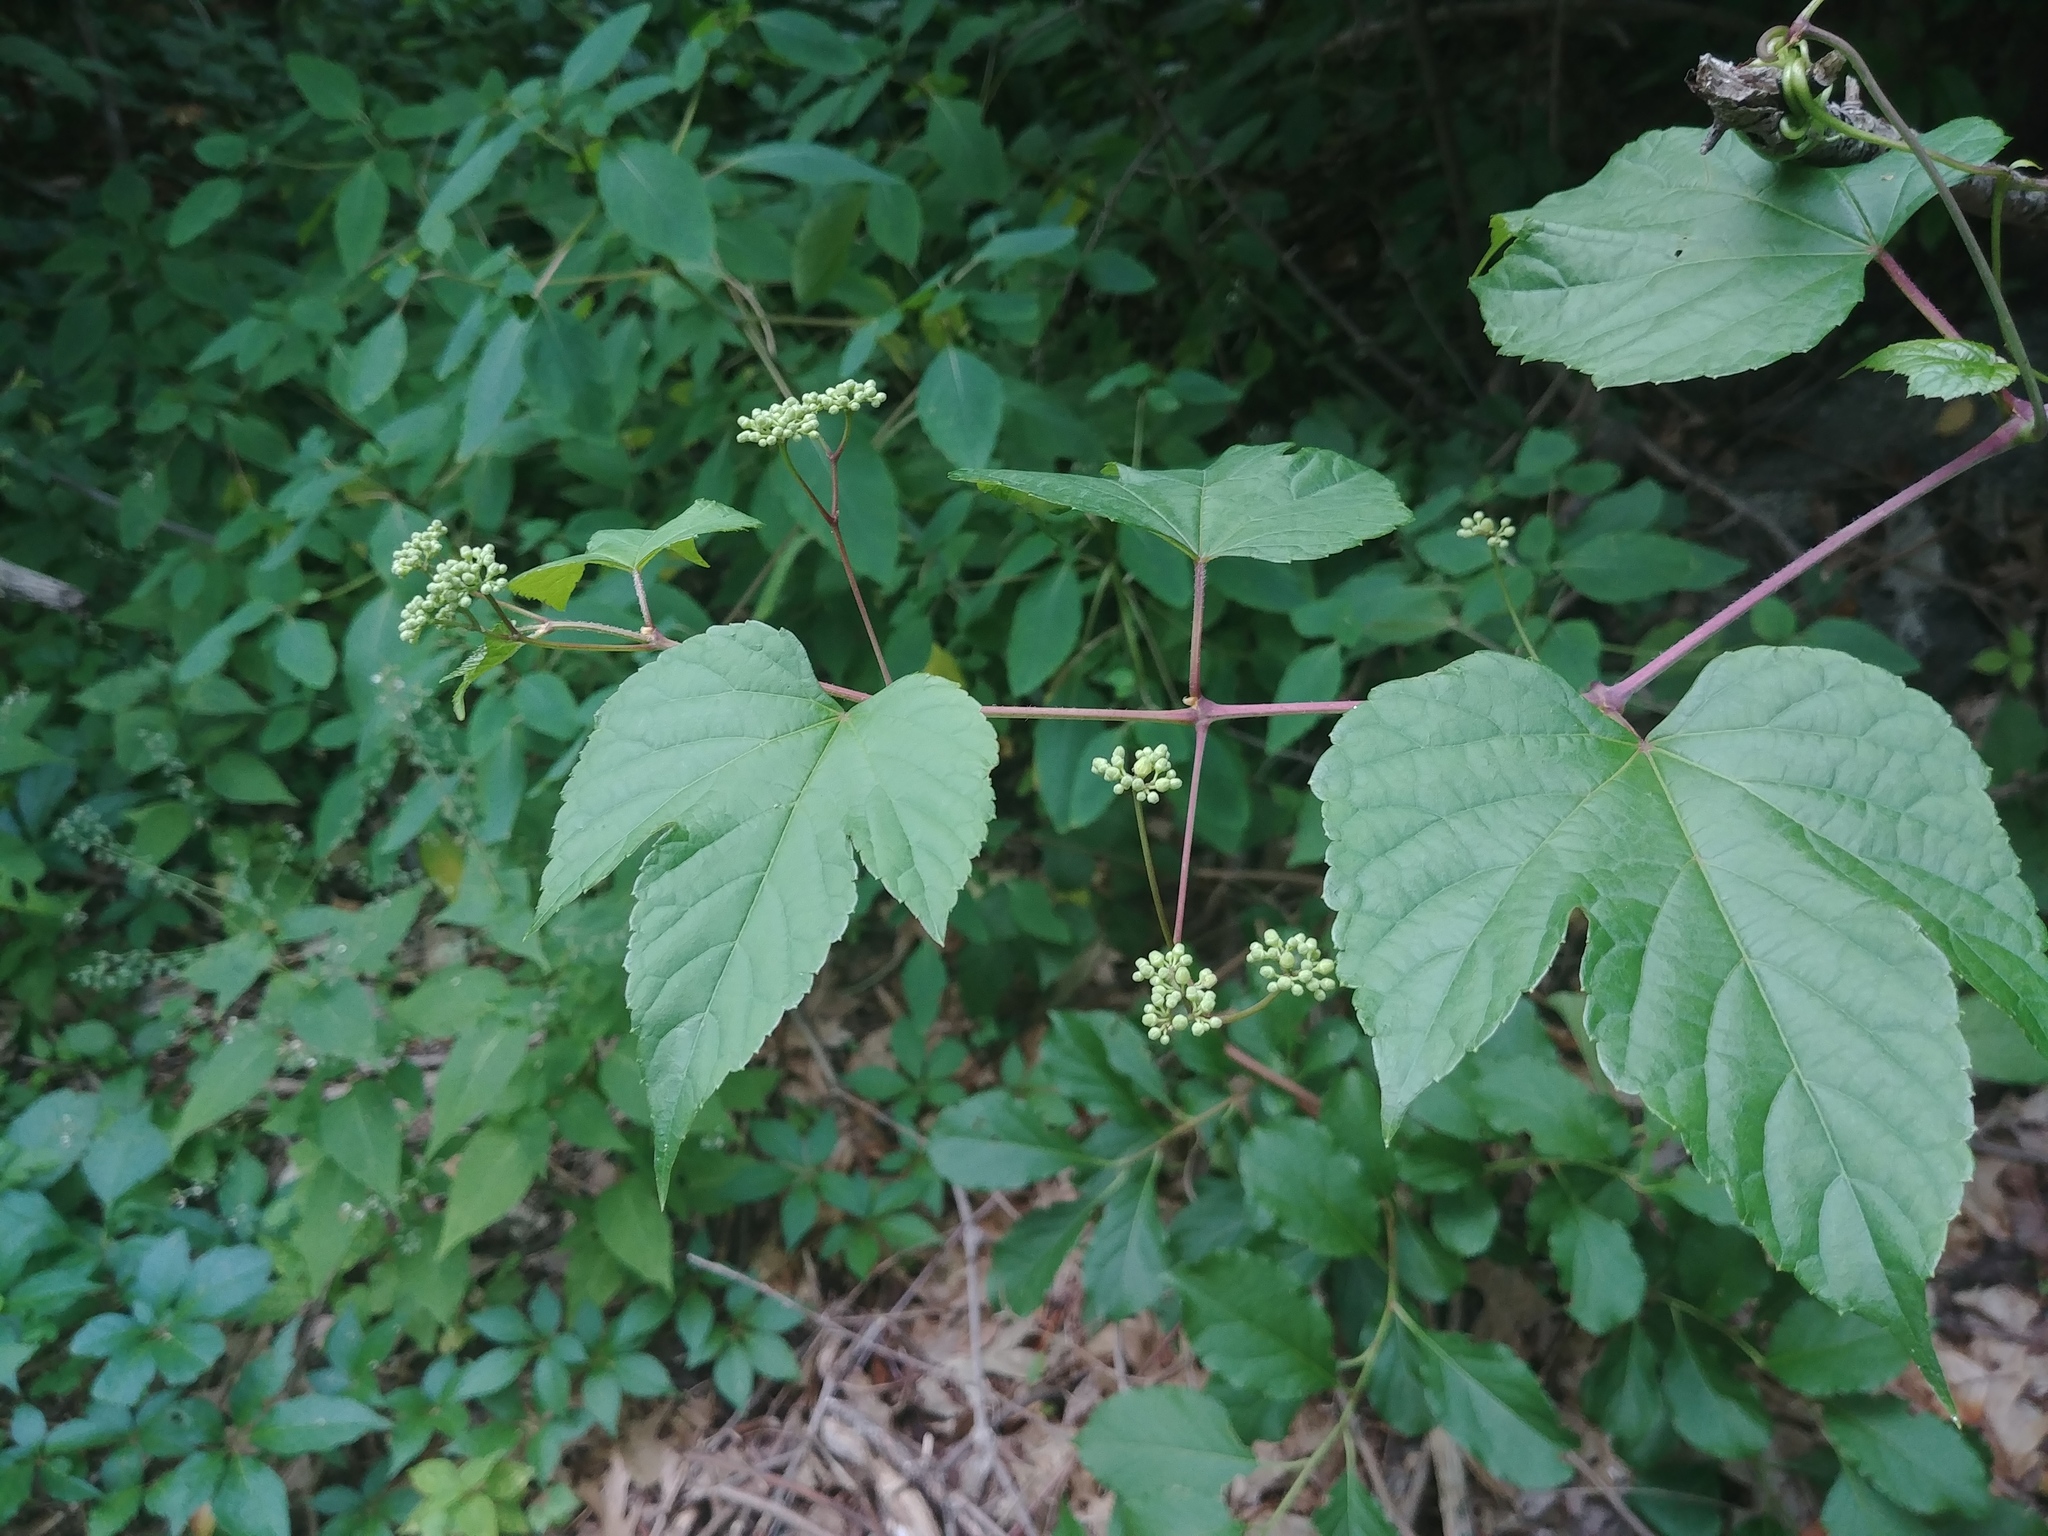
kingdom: Plantae
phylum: Tracheophyta
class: Magnoliopsida
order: Vitales
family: Vitaceae
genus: Ampelopsis
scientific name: Ampelopsis glandulosa
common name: Amur peppervine
